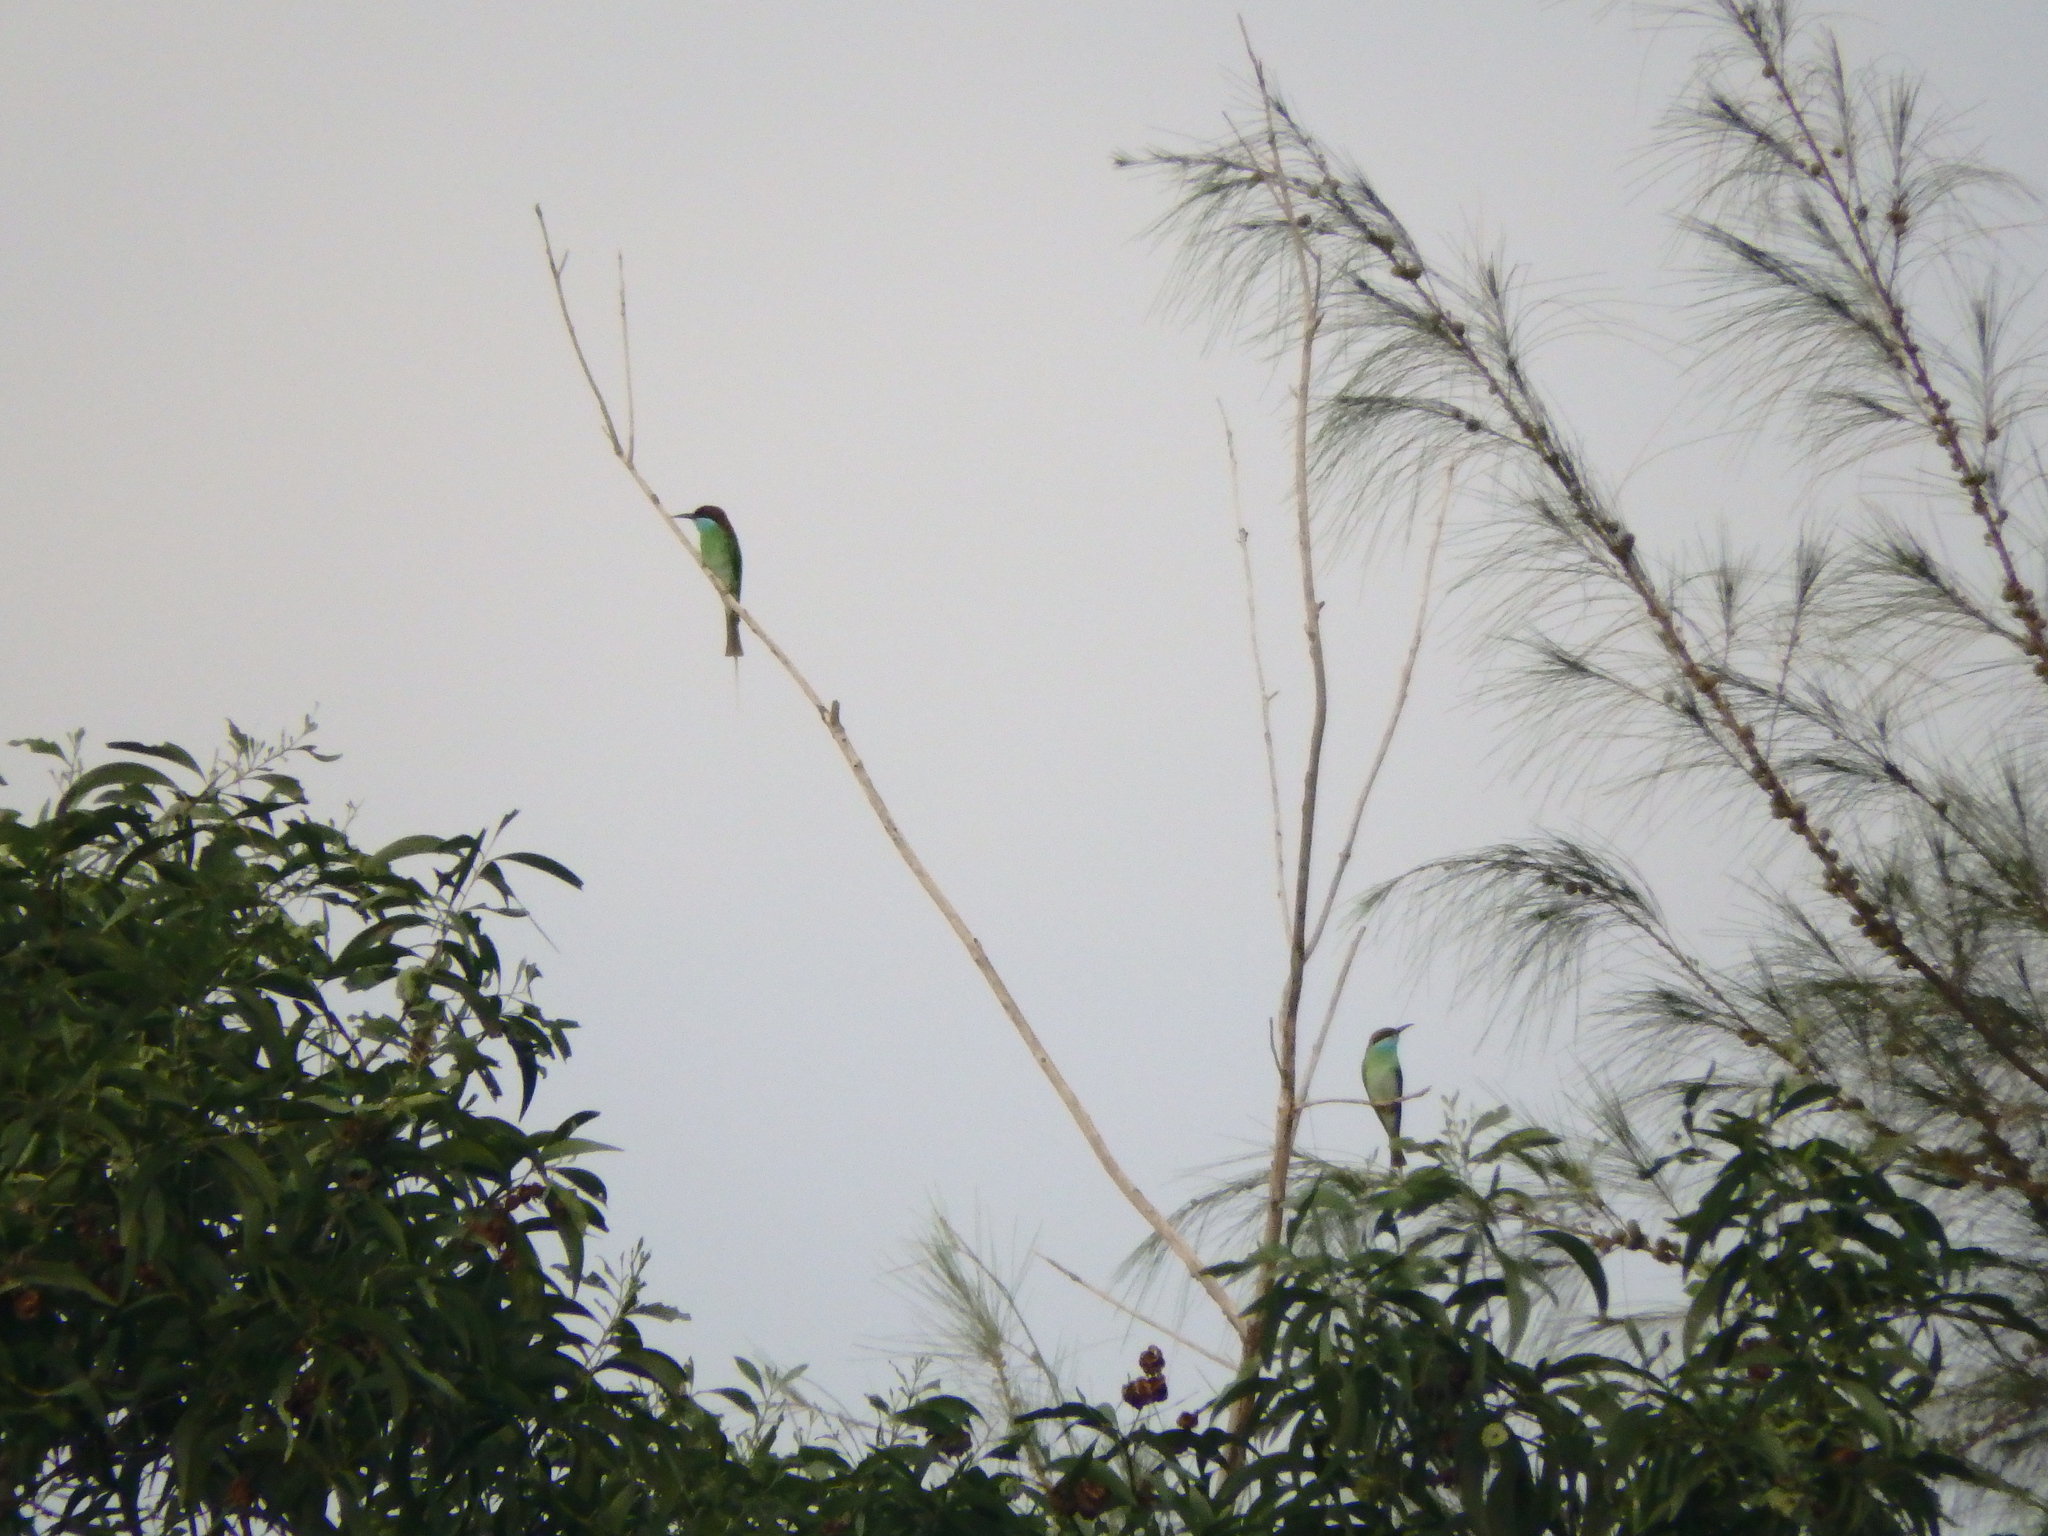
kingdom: Animalia
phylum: Chordata
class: Aves
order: Coraciiformes
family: Meropidae
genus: Merops
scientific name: Merops viridis
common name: Blue-throated bee-eater
